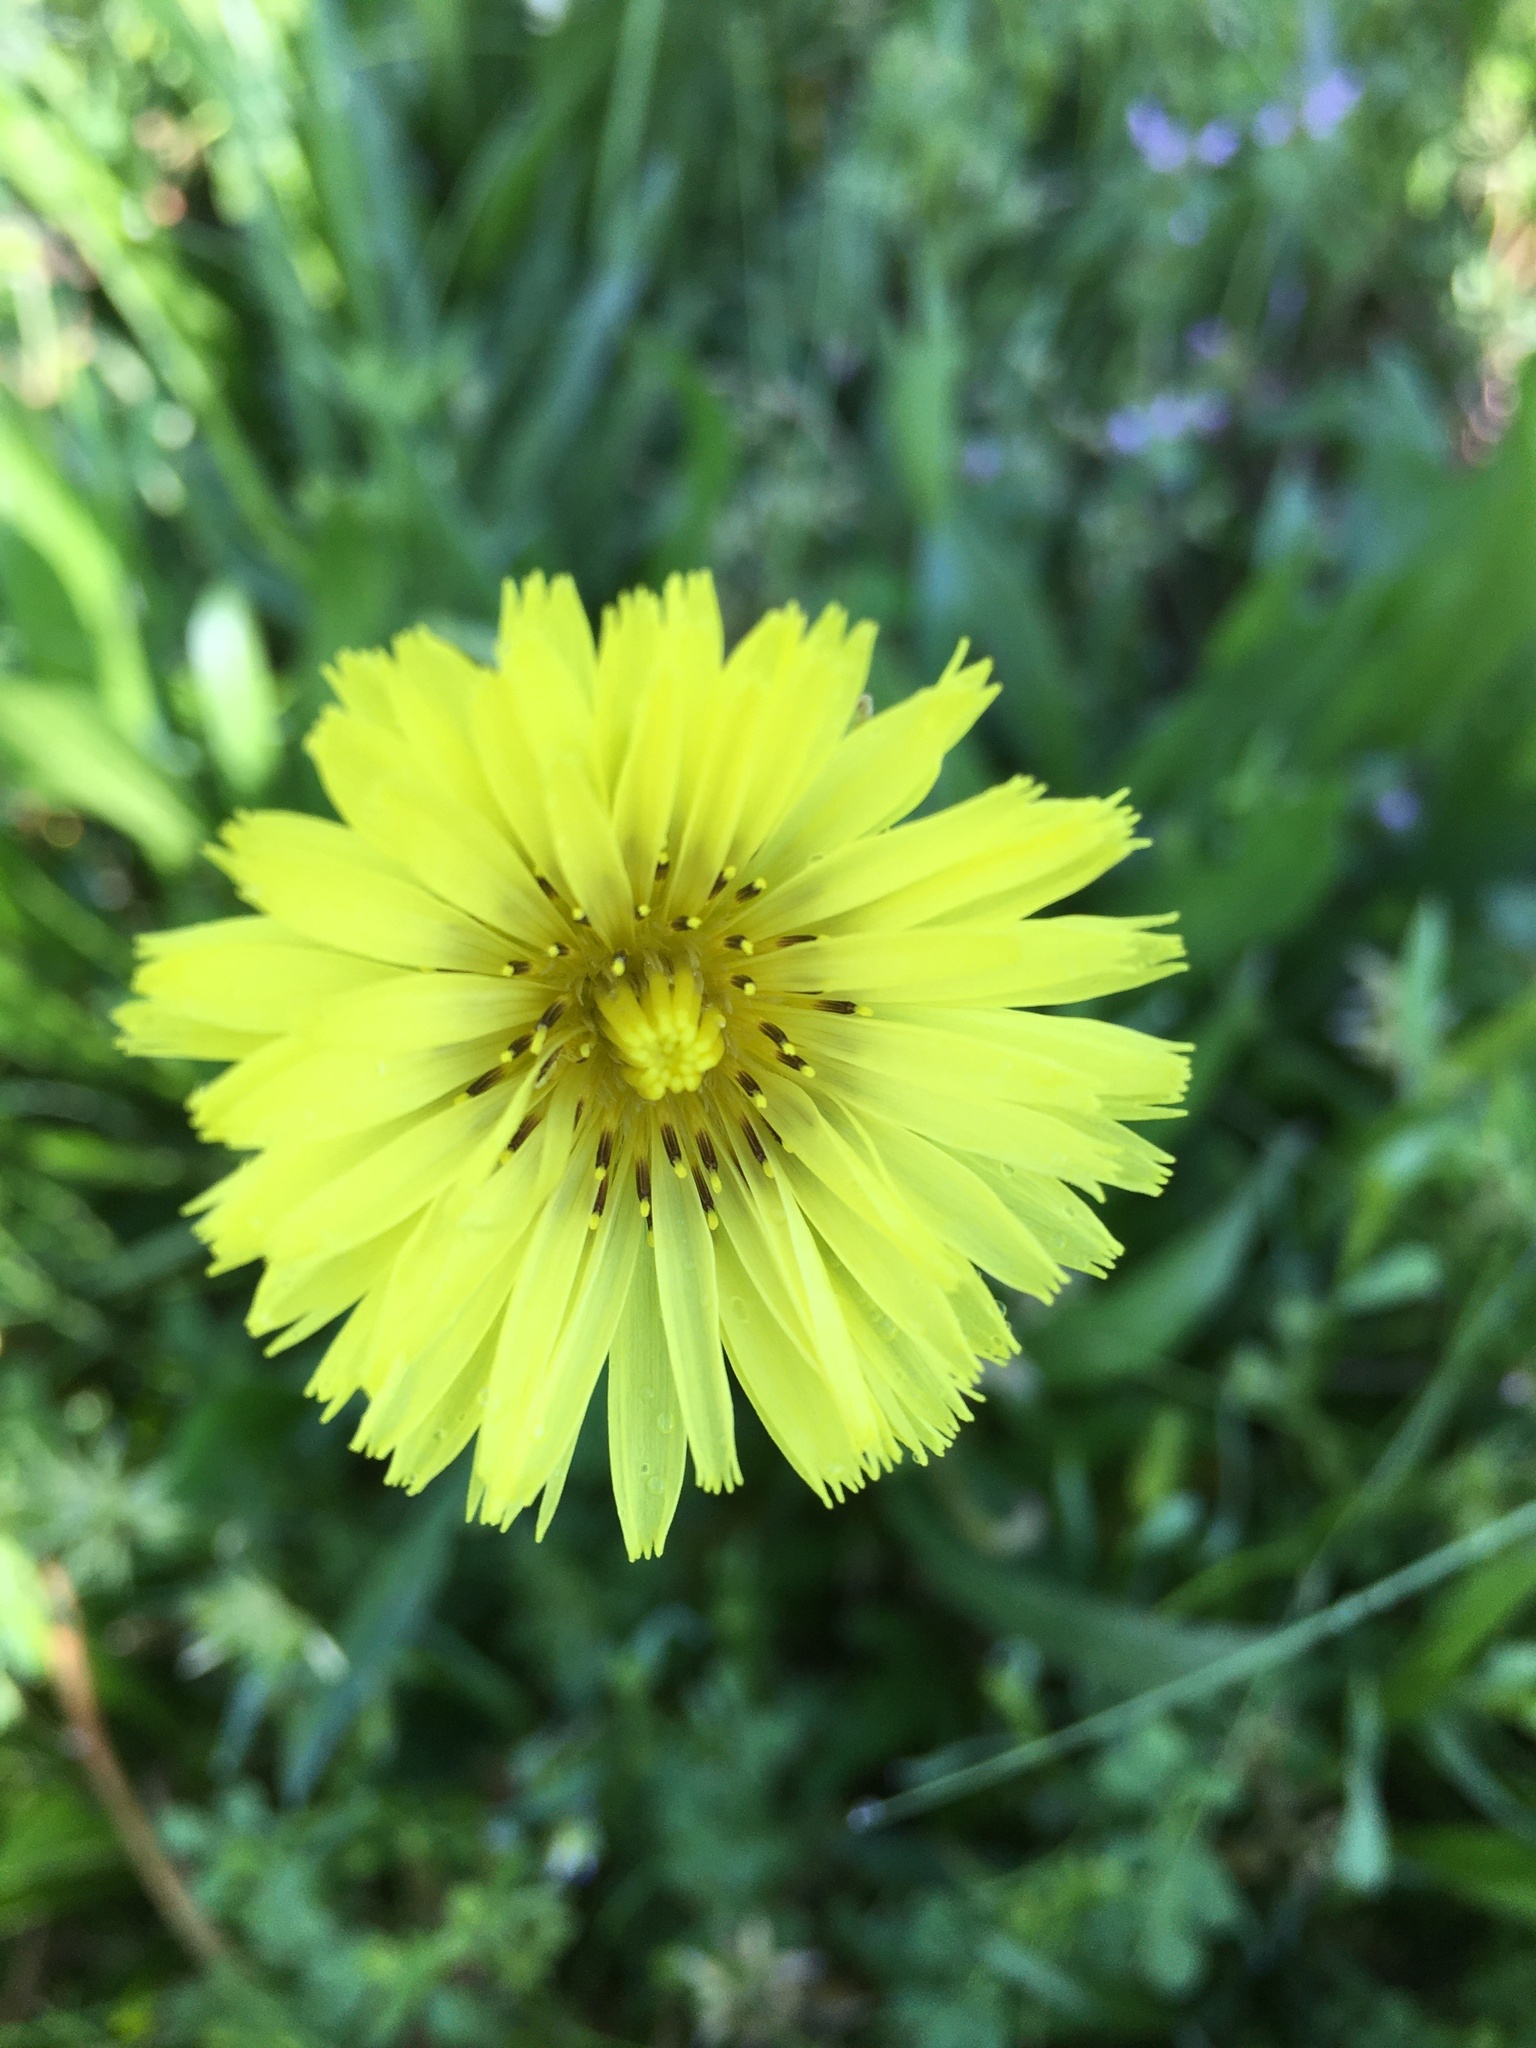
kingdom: Plantae
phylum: Tracheophyta
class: Magnoliopsida
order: Asterales
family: Asteraceae
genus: Pyrrhopappus
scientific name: Pyrrhopappus carolinianus
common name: Carolina desert-chicory
